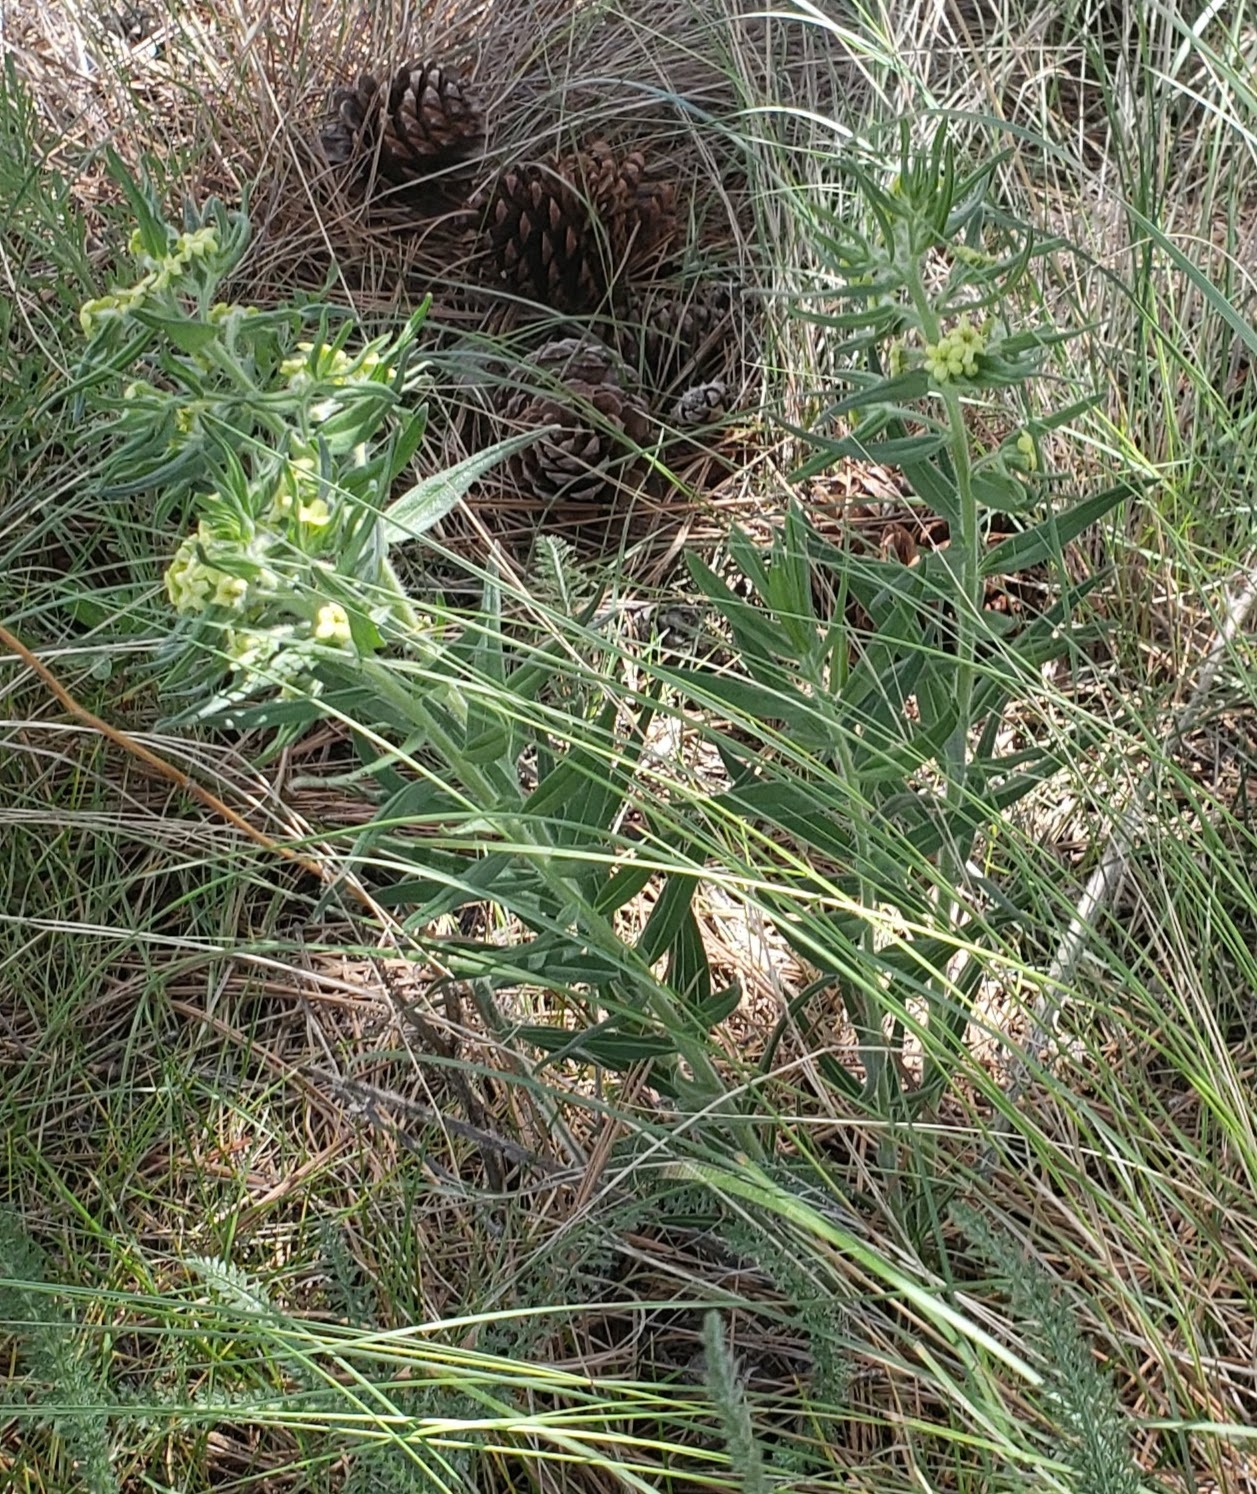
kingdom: Plantae
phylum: Tracheophyta
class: Magnoliopsida
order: Boraginales
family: Boraginaceae
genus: Lithospermum
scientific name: Lithospermum ruderale
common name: Western gromwell
